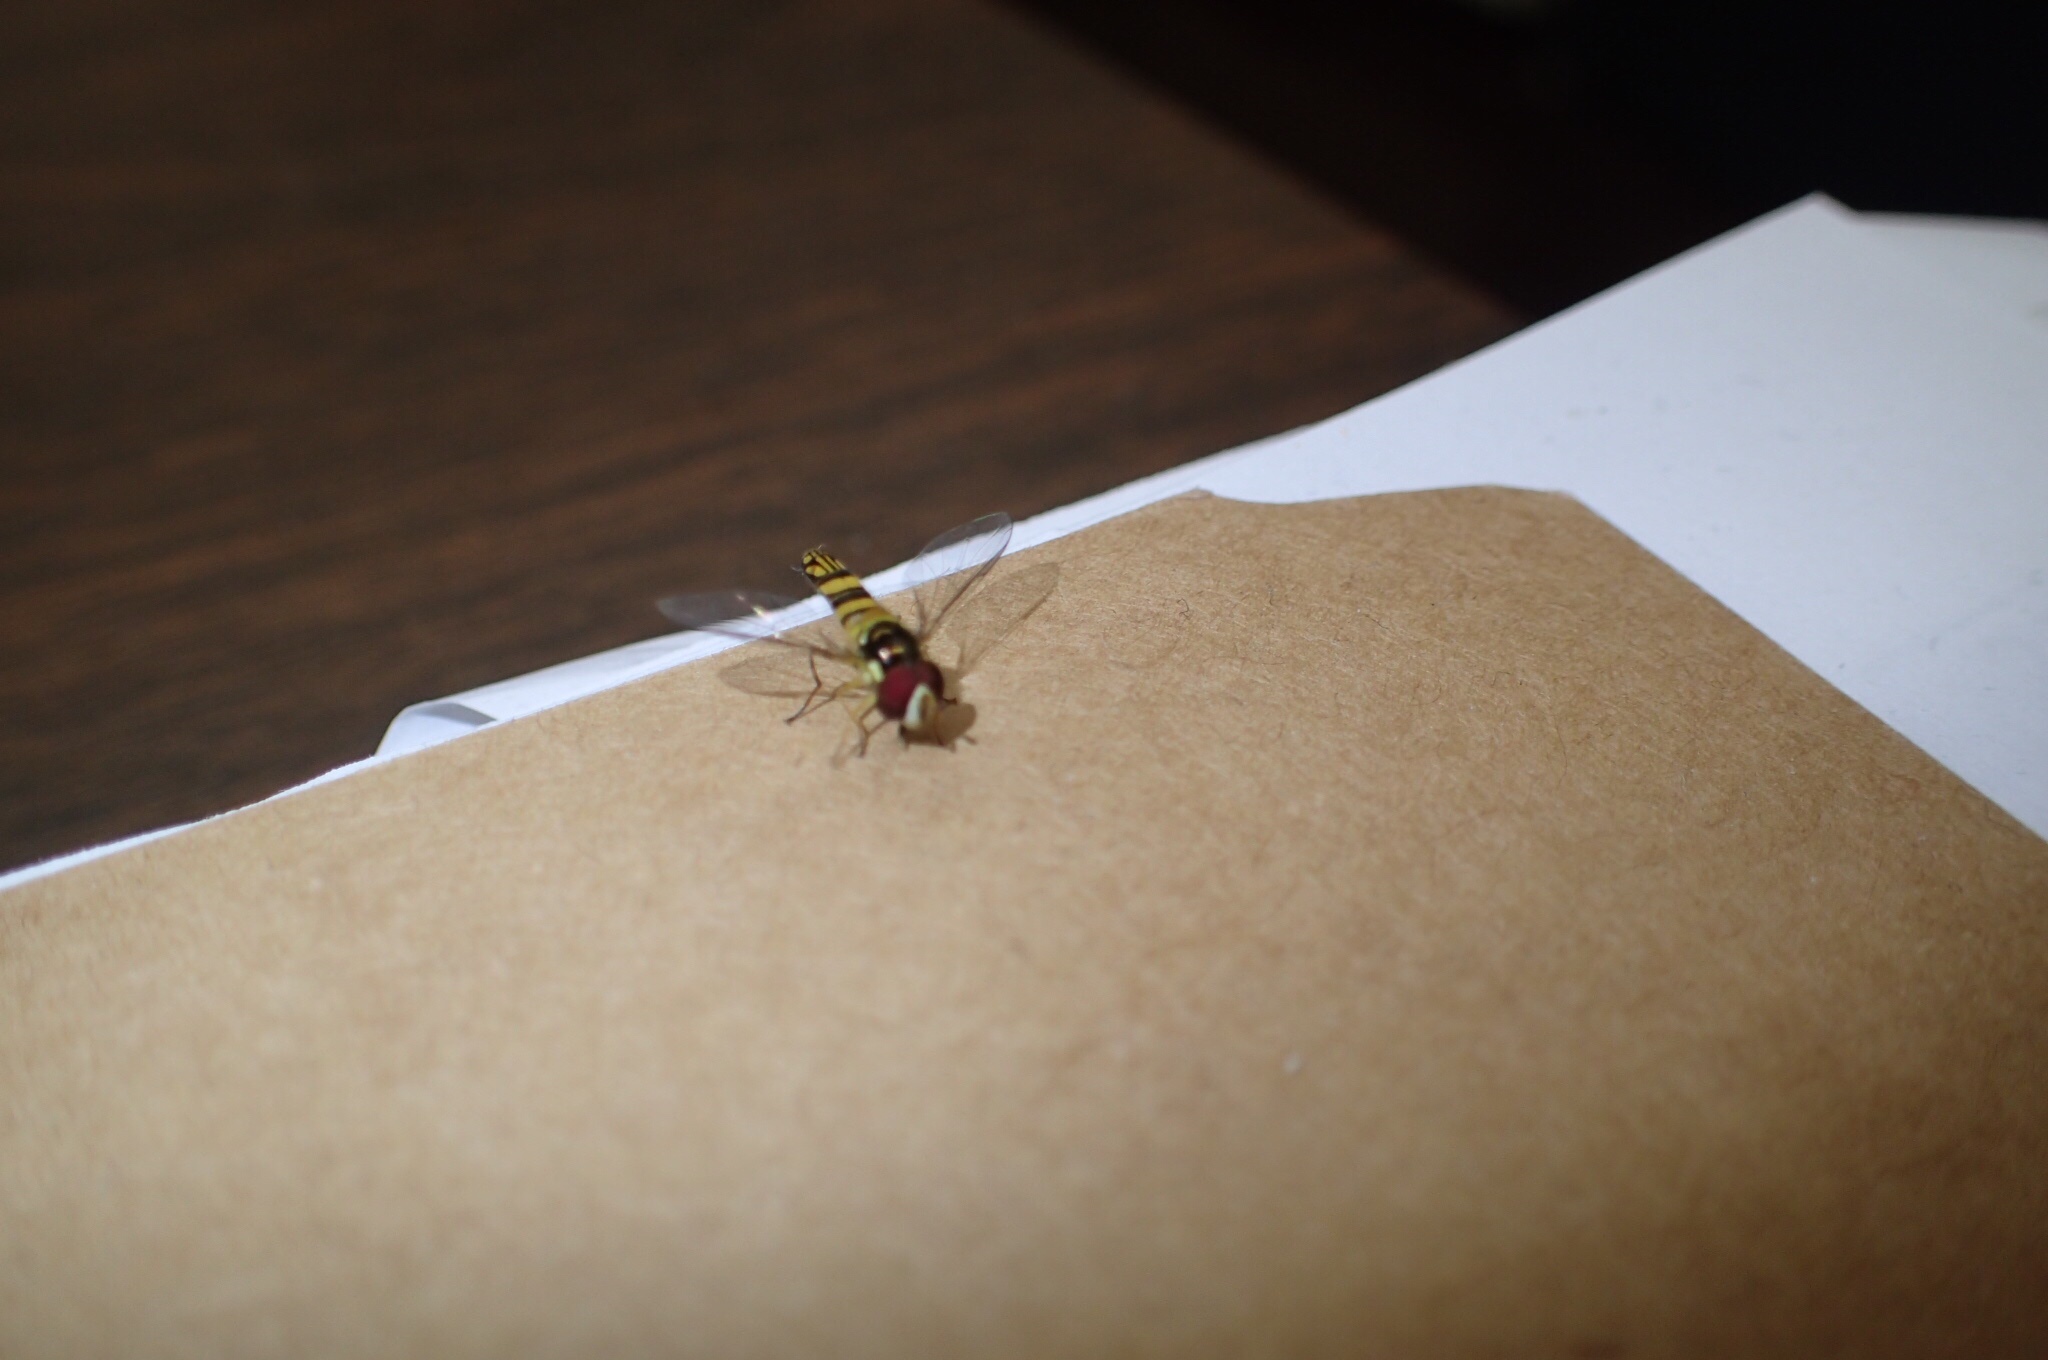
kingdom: Animalia
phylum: Arthropoda
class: Insecta
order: Diptera
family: Syrphidae
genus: Allograpta
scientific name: Allograpta obliqua
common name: Common oblique syrphid
